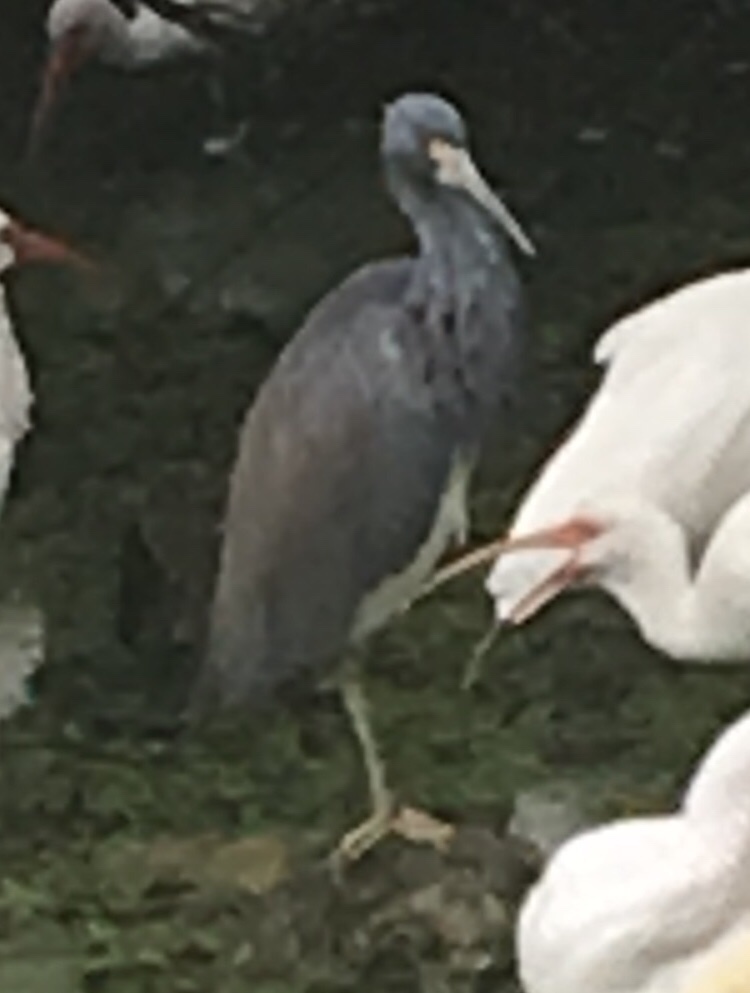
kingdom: Animalia
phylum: Chordata
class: Aves
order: Pelecaniformes
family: Ardeidae
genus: Egretta
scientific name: Egretta tricolor
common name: Tricolored heron
